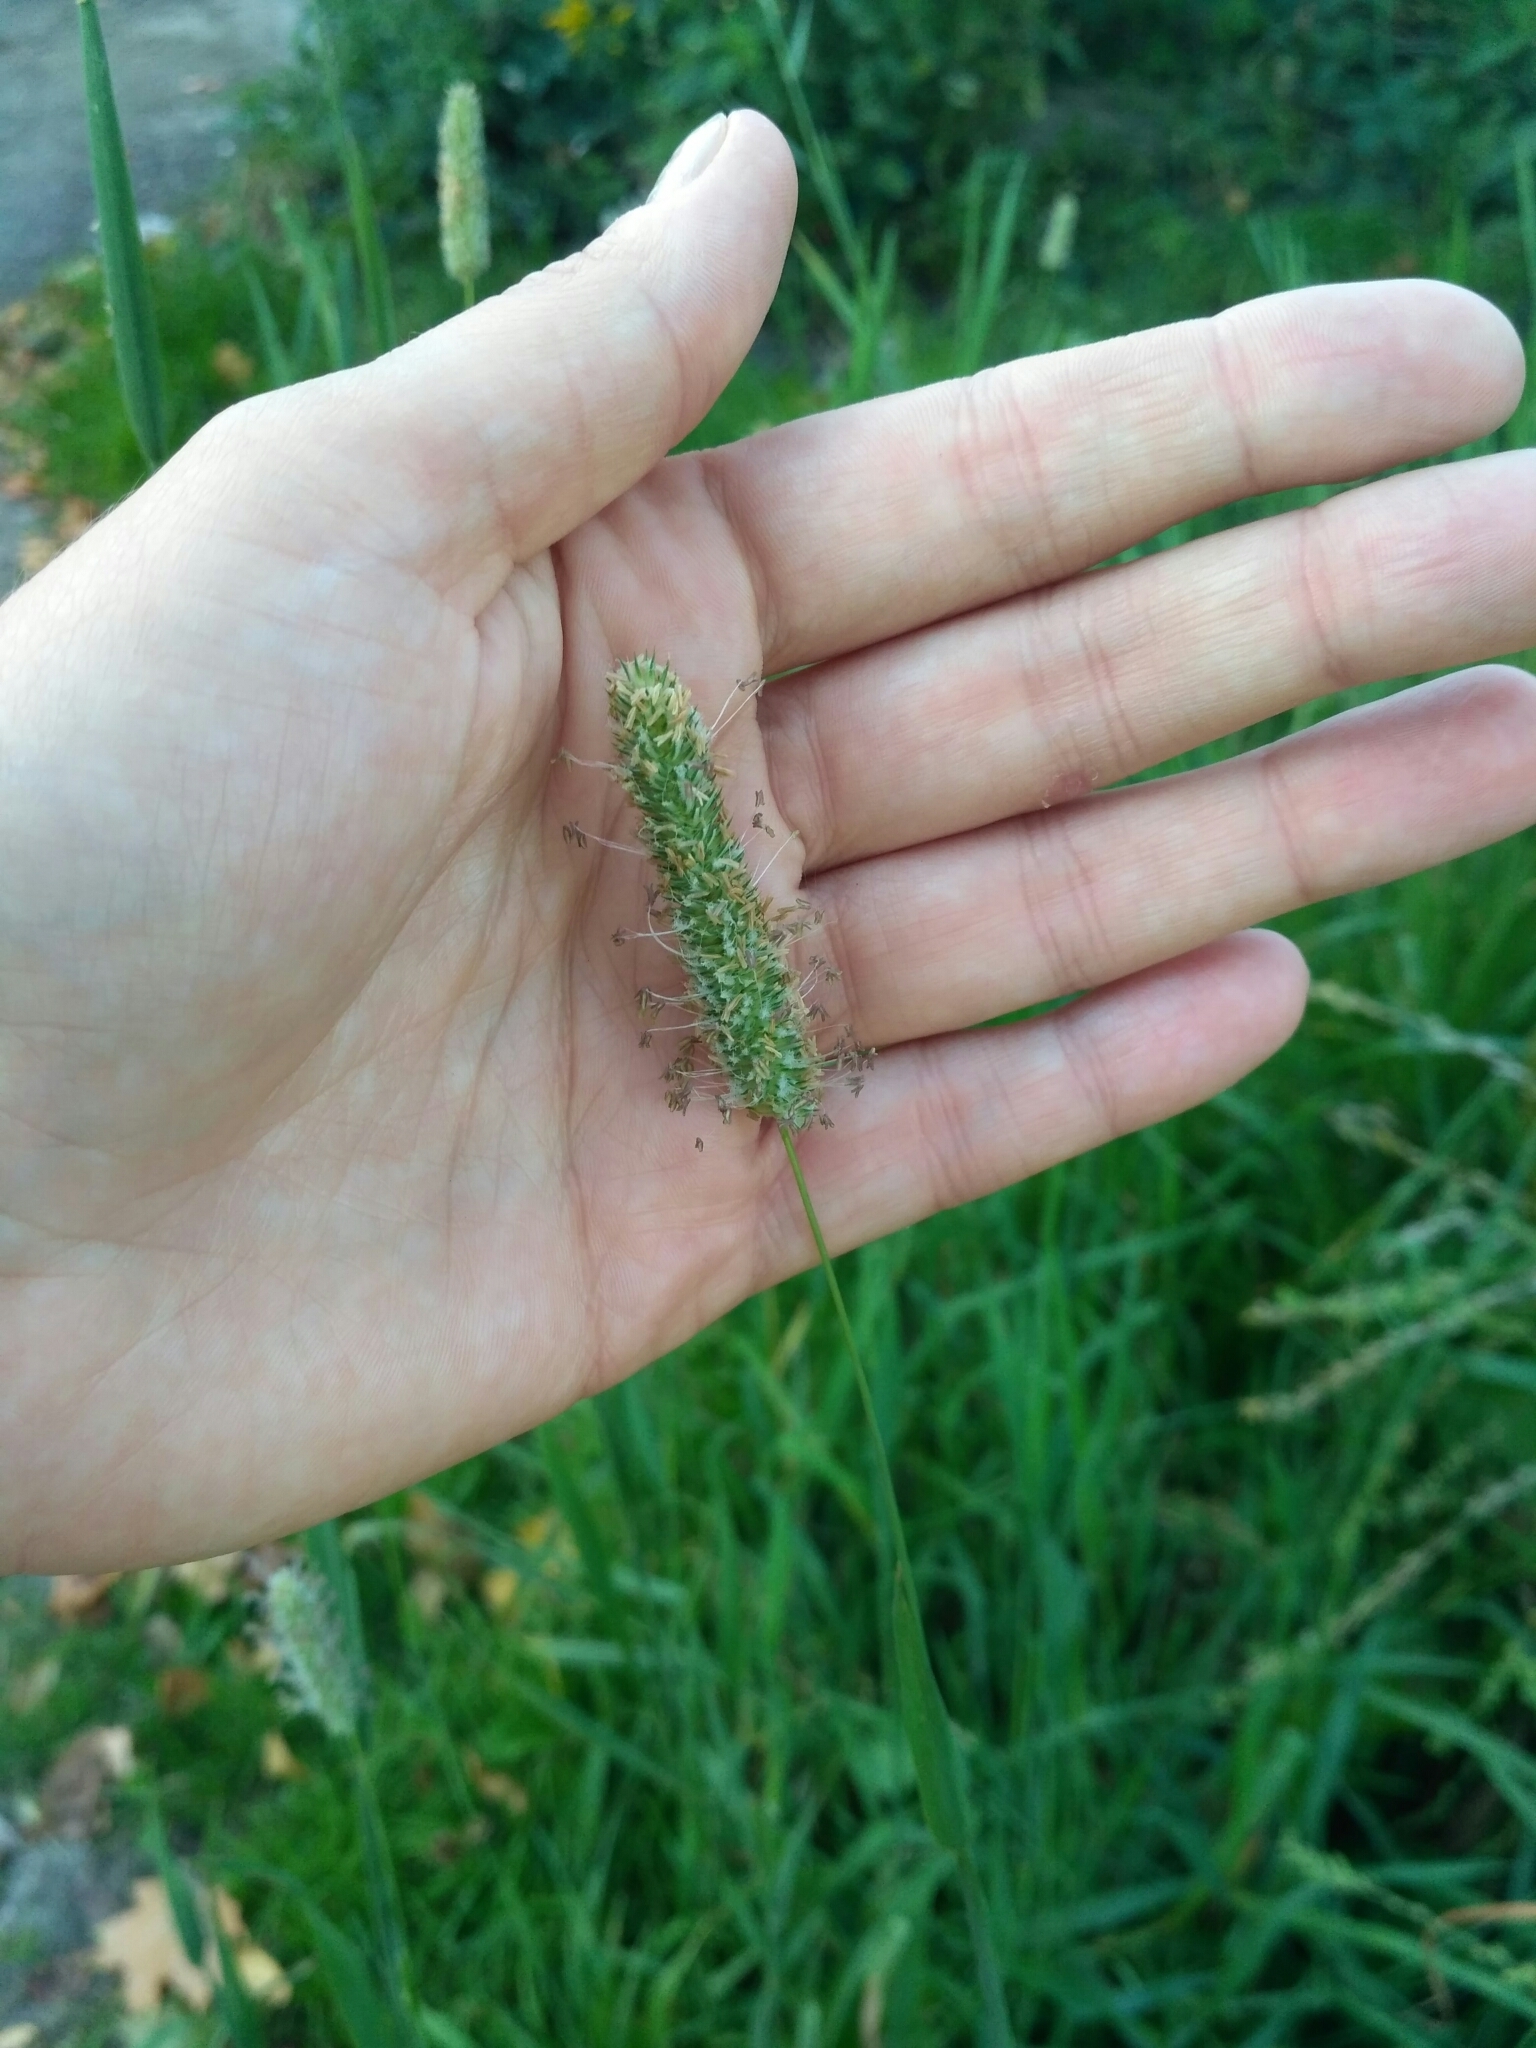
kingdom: Plantae
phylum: Tracheophyta
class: Liliopsida
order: Poales
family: Poaceae
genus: Phleum
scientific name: Phleum pratense
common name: Timothy grass
